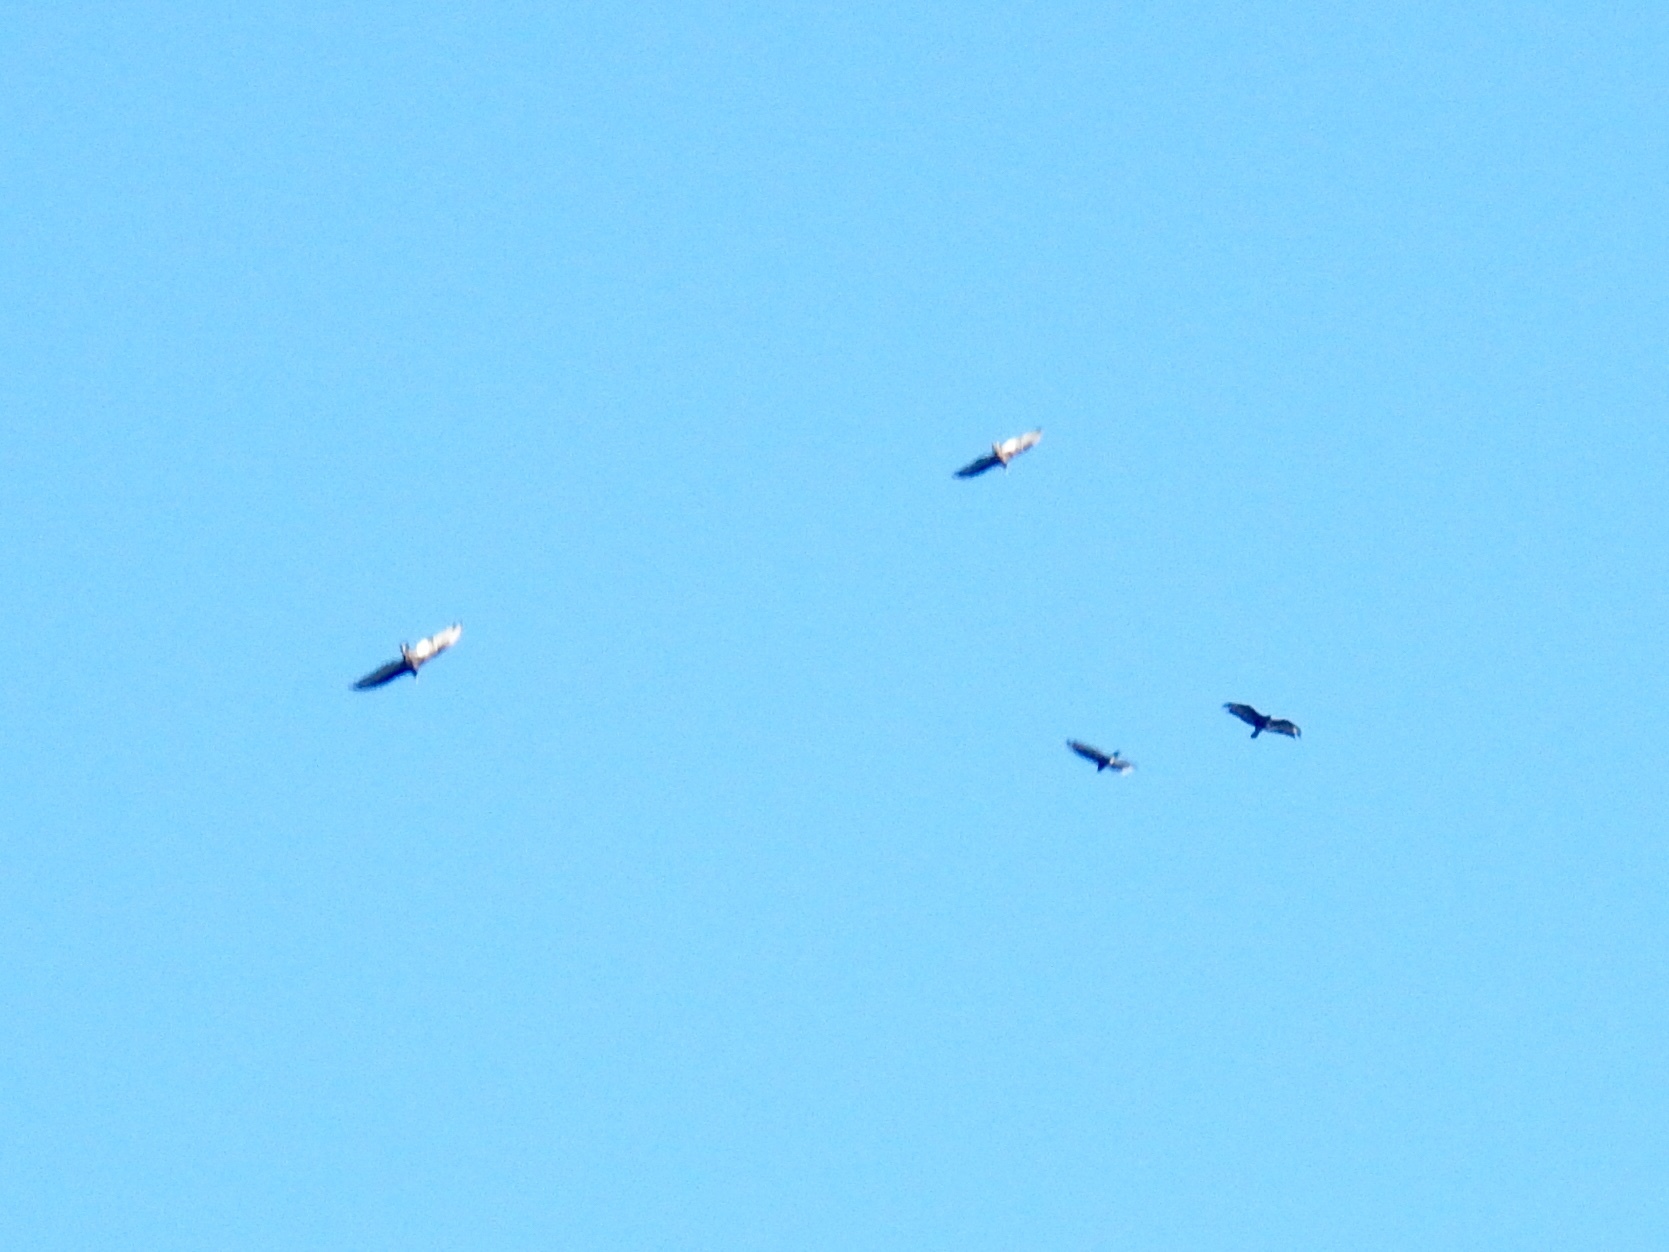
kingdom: Animalia
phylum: Chordata
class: Aves
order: Accipitriformes
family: Cathartidae
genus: Cathartes
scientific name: Cathartes aura
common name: Turkey vulture
